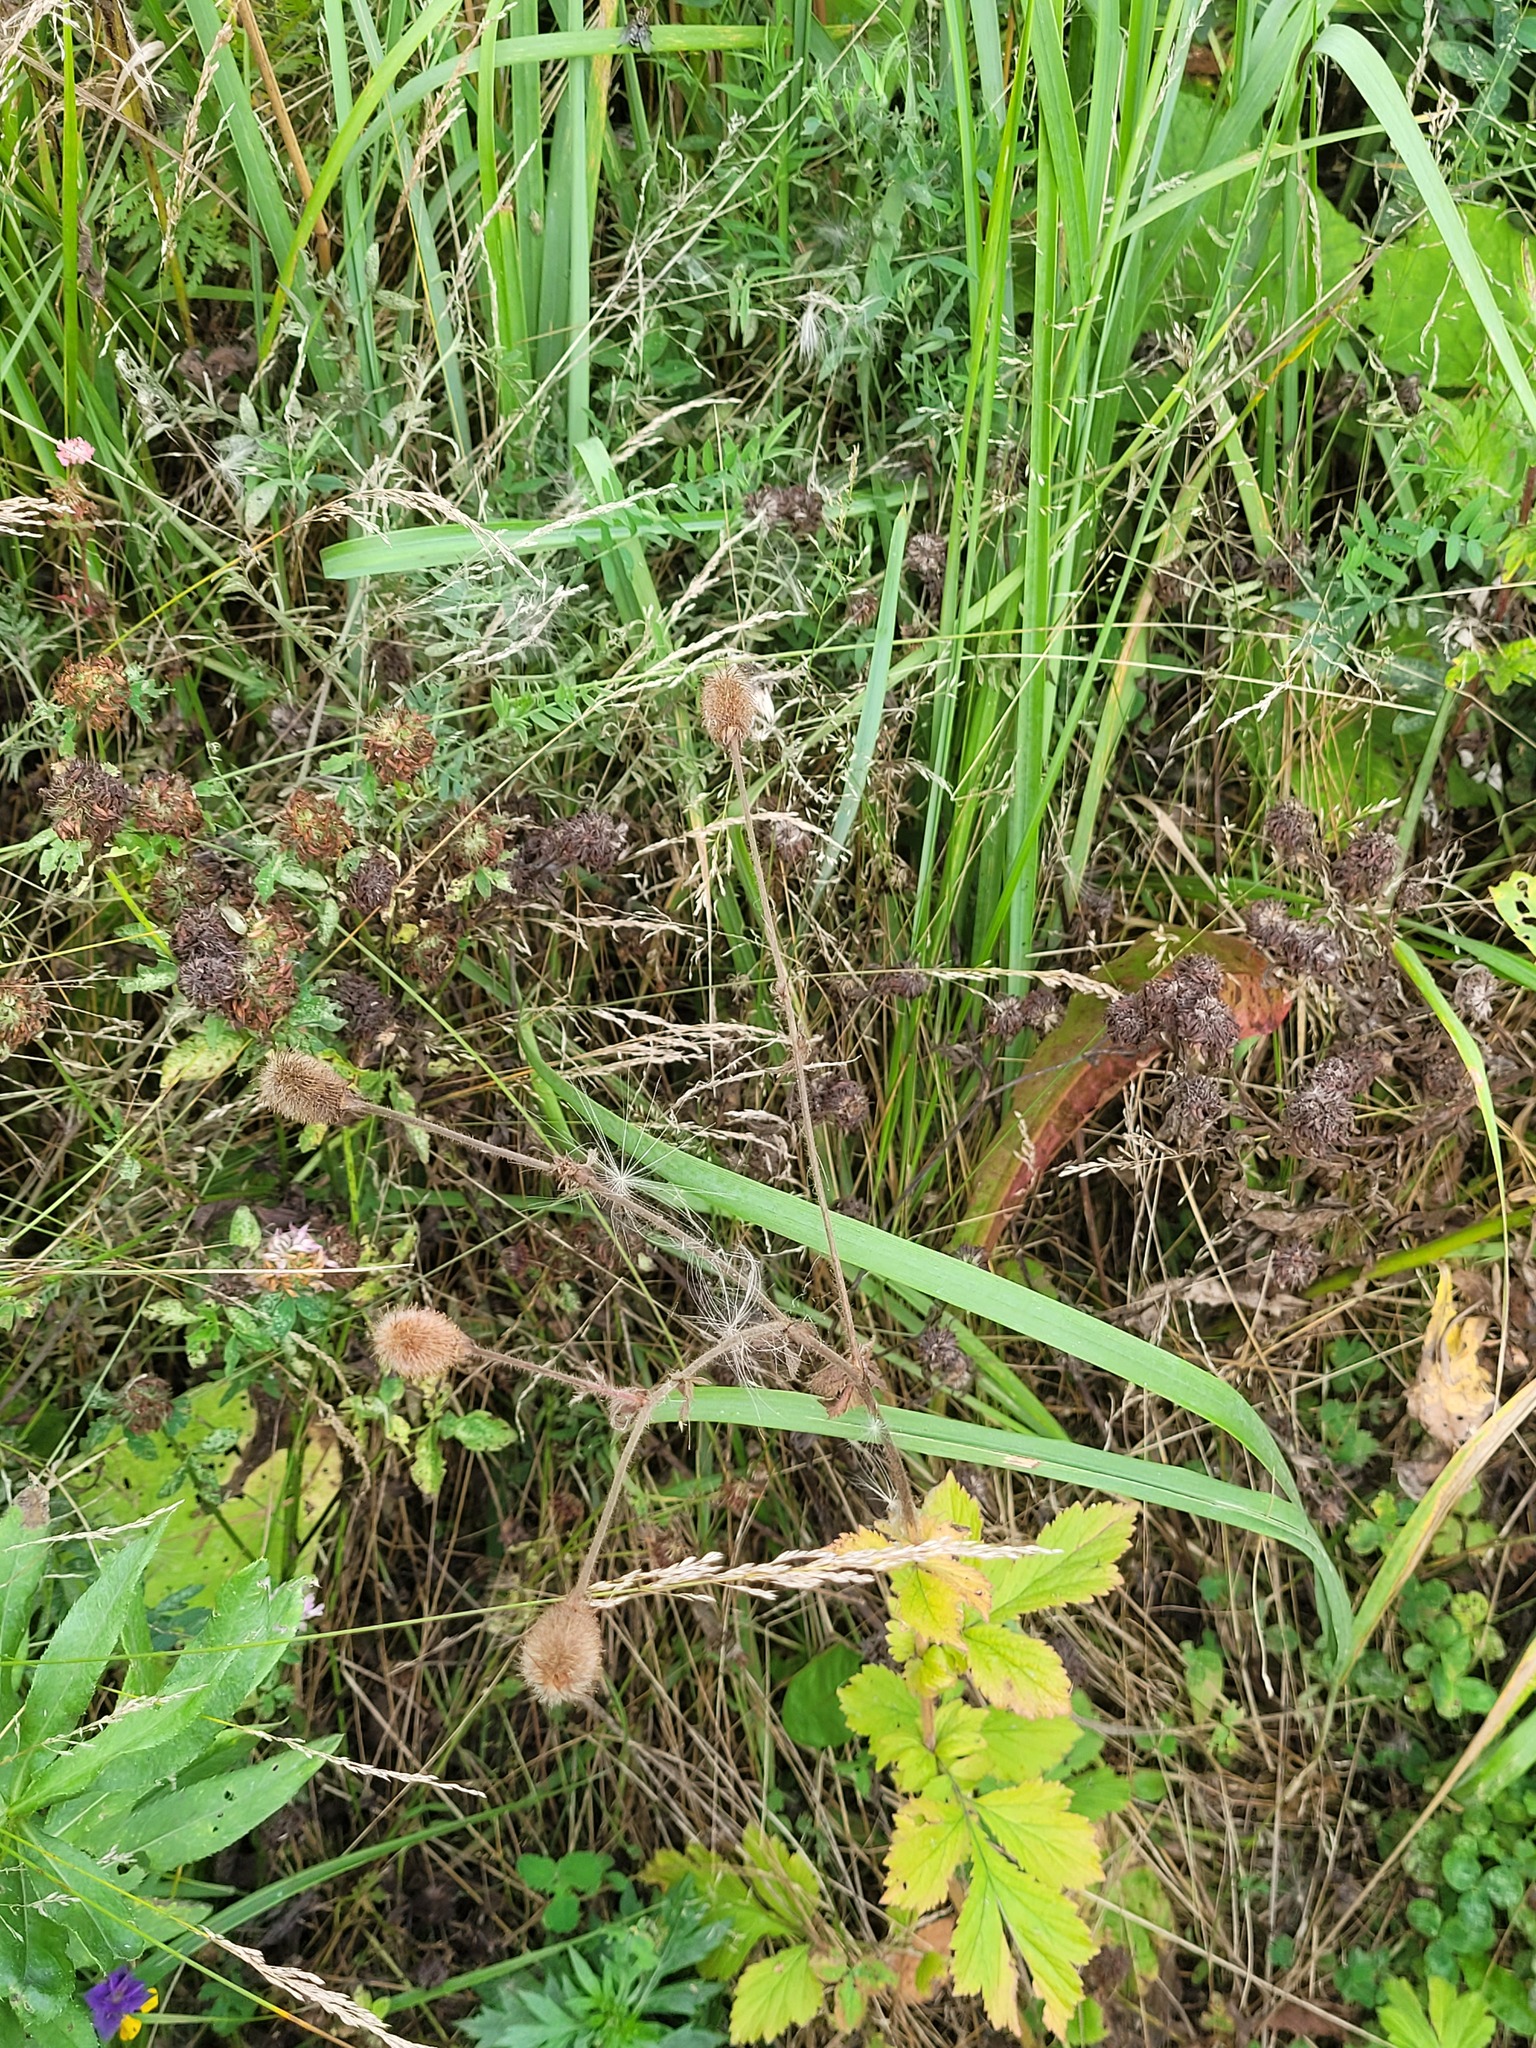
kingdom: Plantae
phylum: Tracheophyta
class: Magnoliopsida
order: Rosales
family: Rosaceae
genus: Geum
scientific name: Geum aleppicum
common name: Yellow avens
